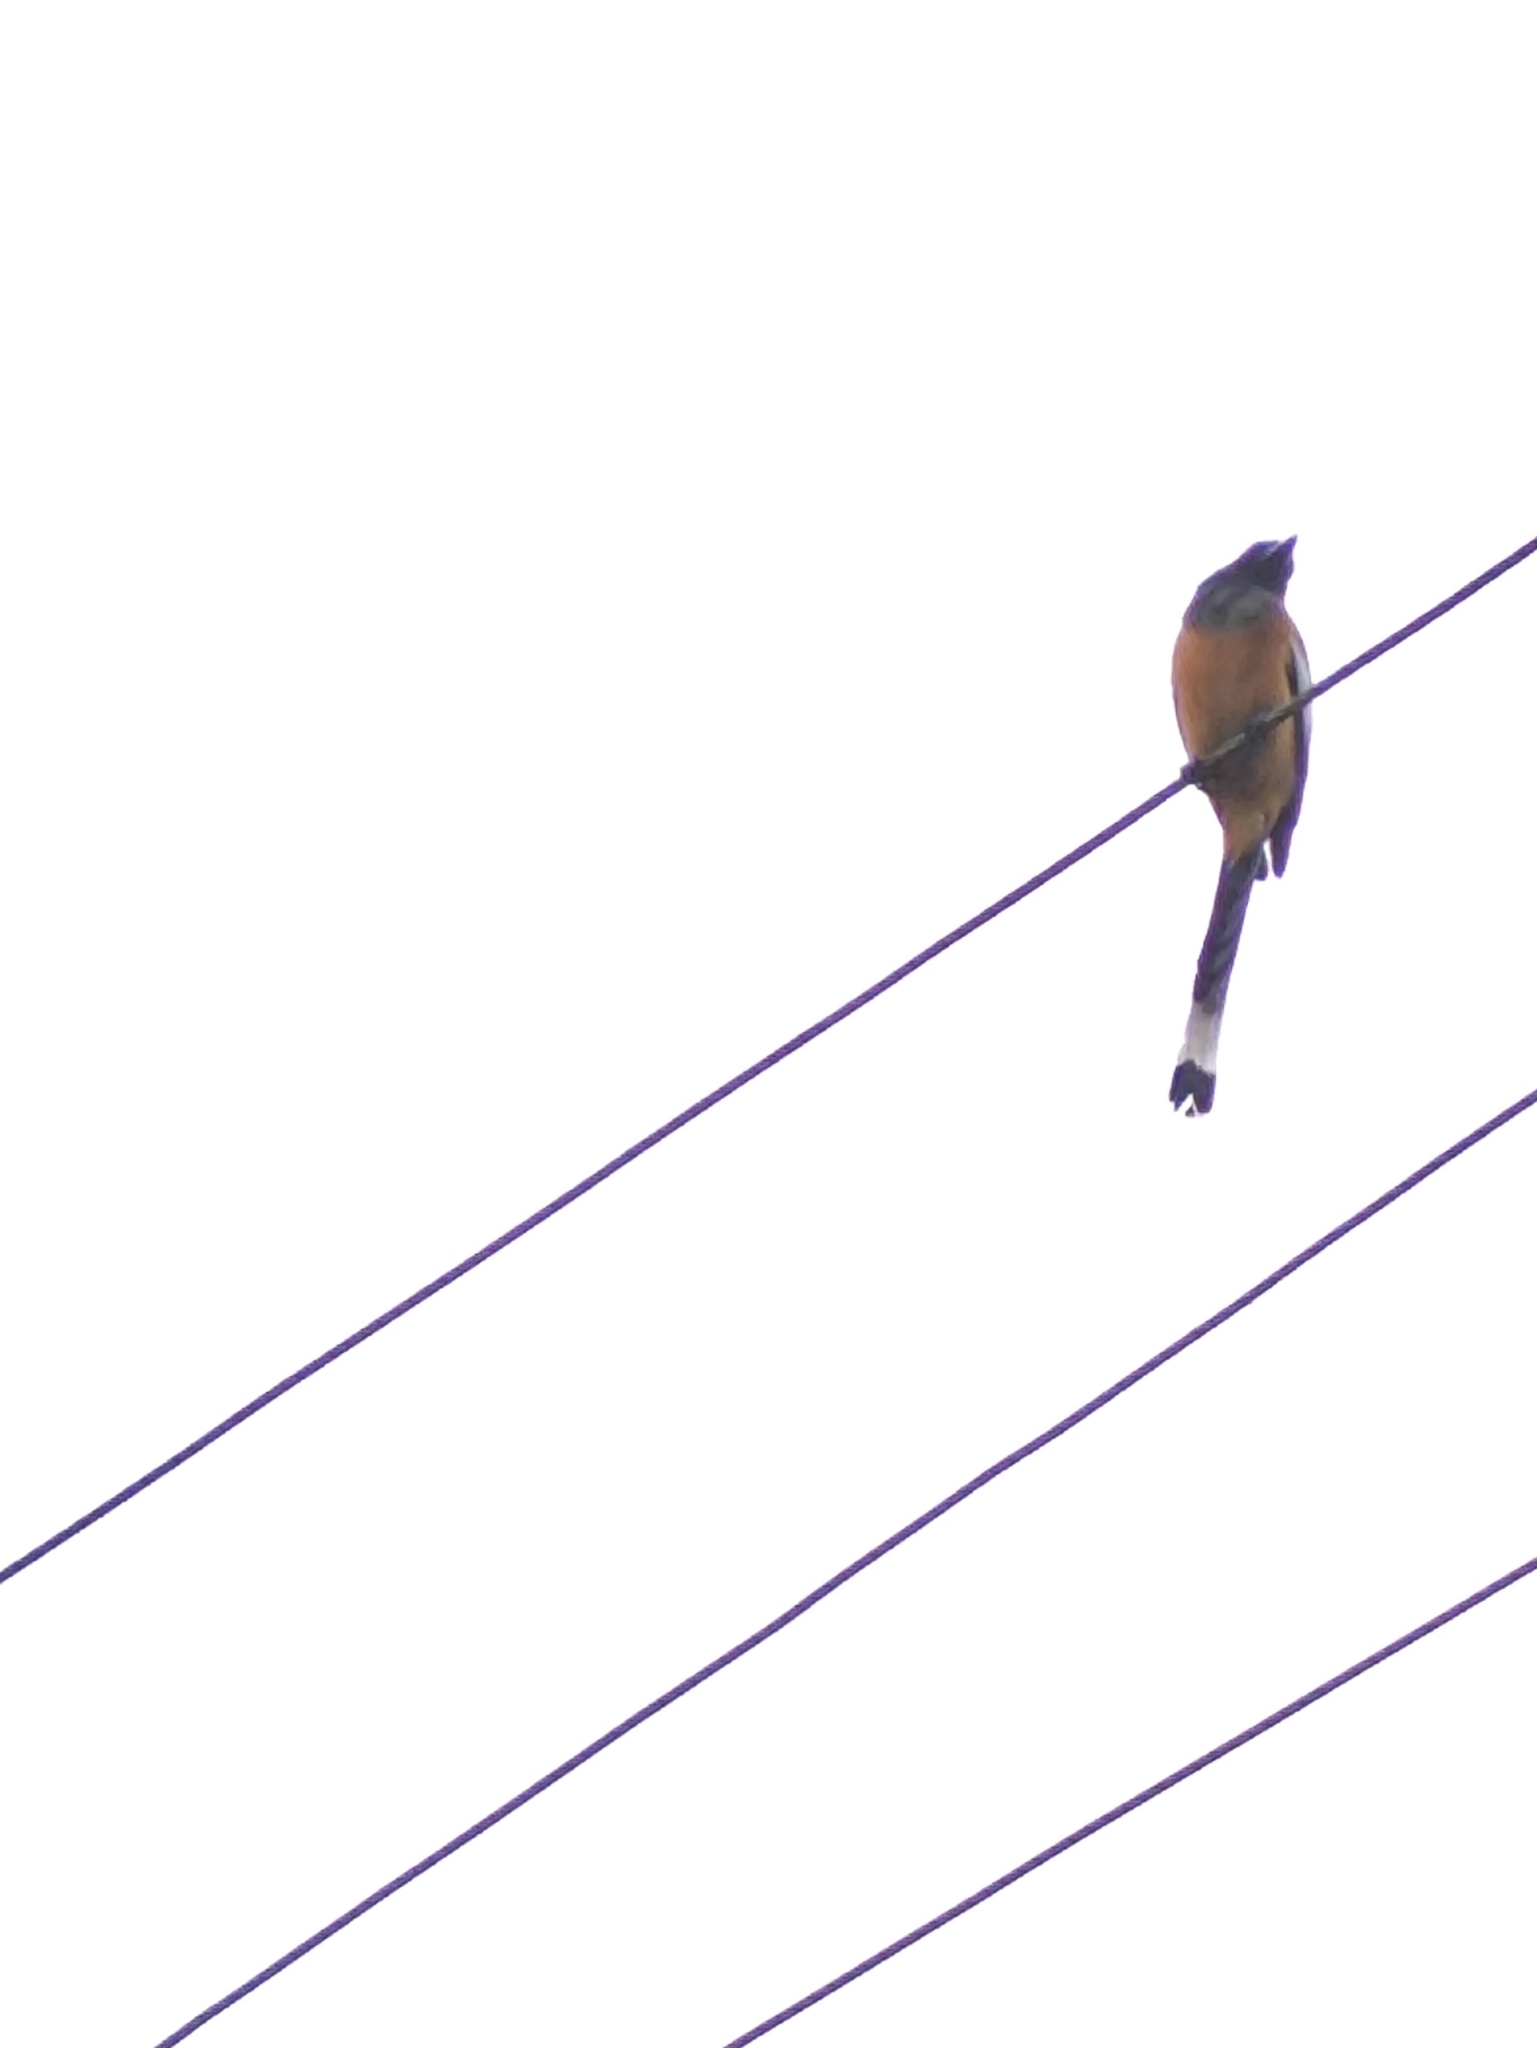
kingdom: Animalia
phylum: Chordata
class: Aves
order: Passeriformes
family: Corvidae
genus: Dendrocitta
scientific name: Dendrocitta vagabunda
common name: Rufous treepie
